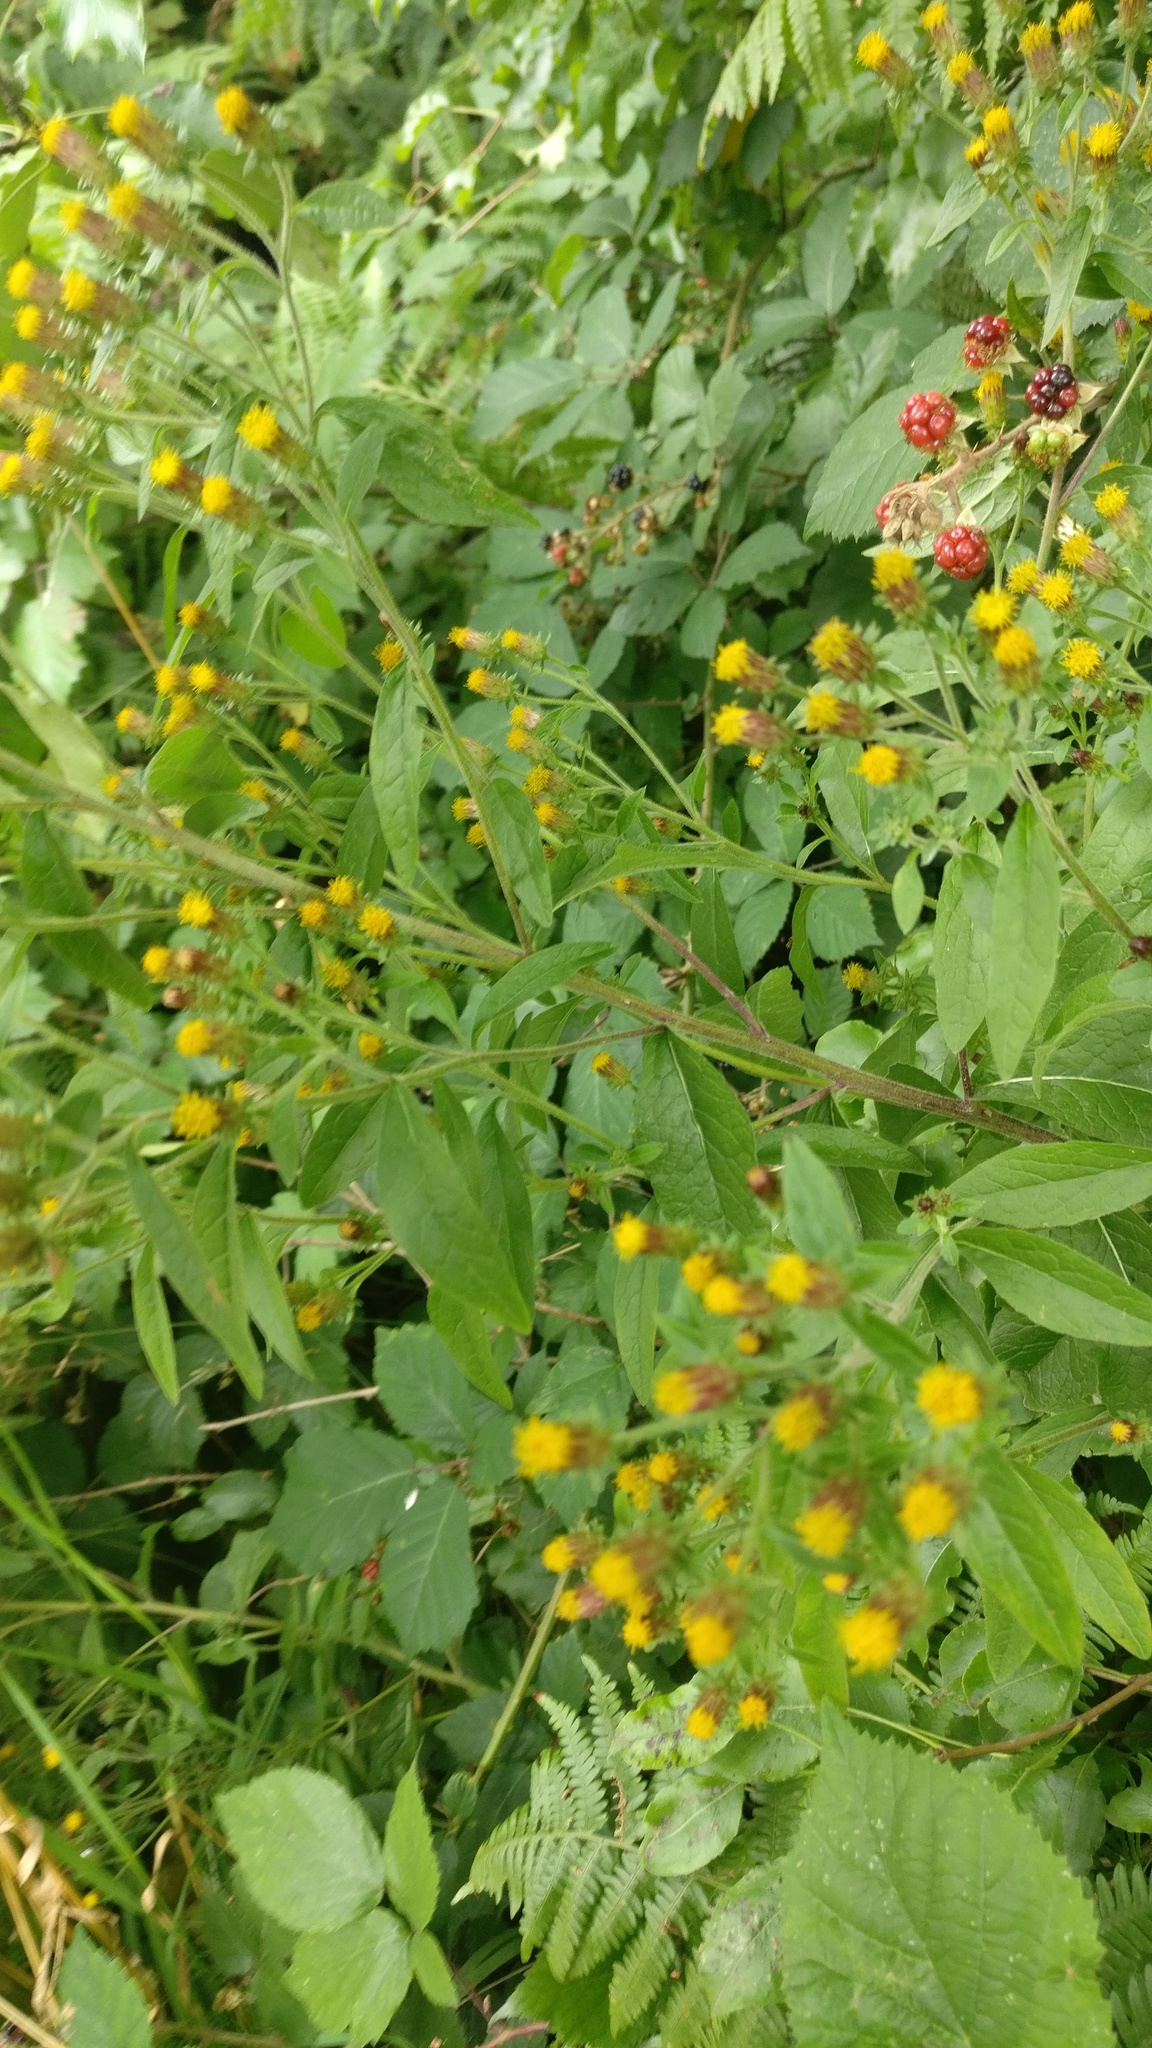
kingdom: Plantae
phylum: Tracheophyta
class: Magnoliopsida
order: Asterales
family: Asteraceae
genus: Pentanema
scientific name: Pentanema squarrosum
